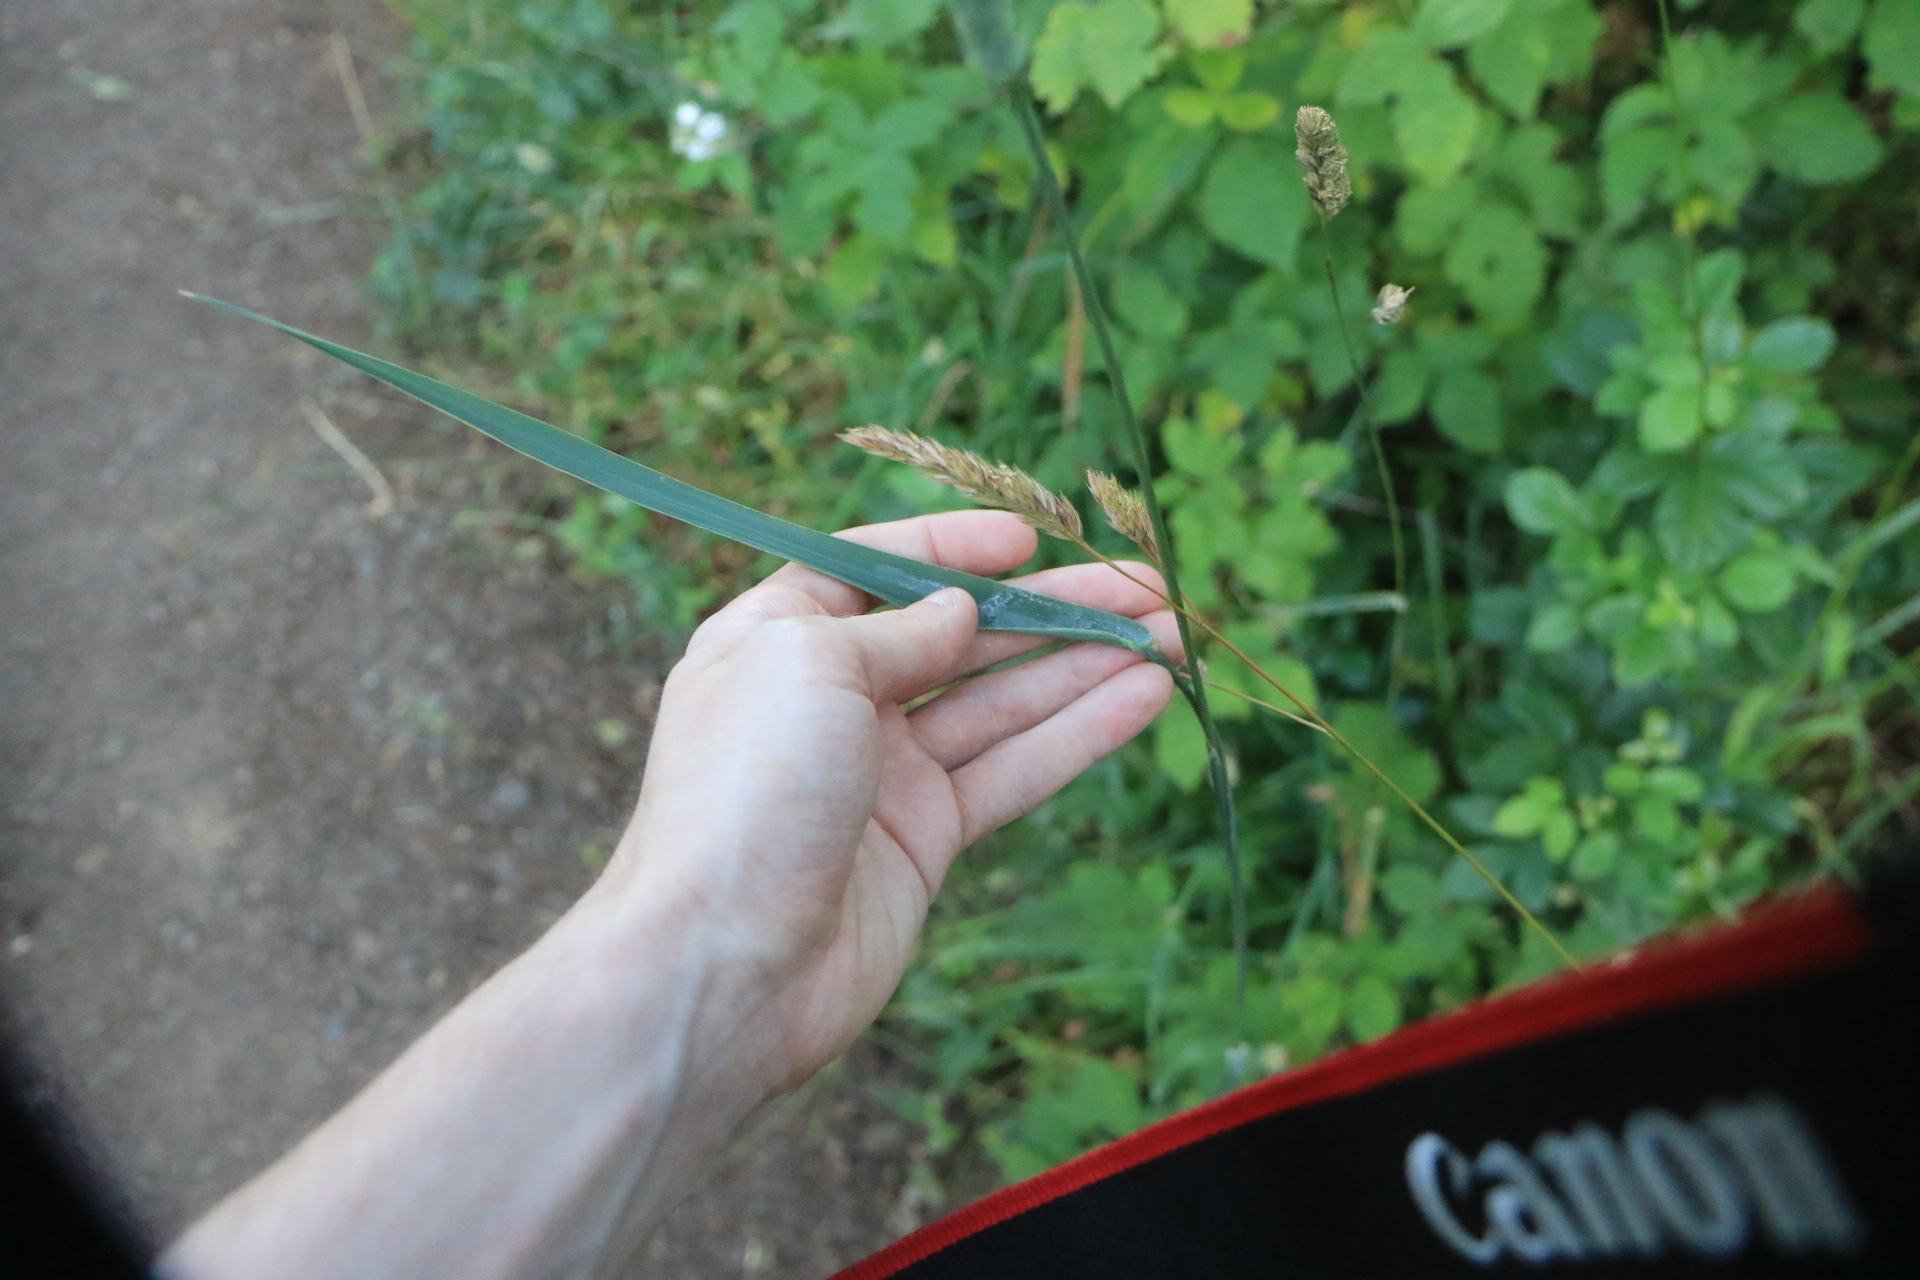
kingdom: Plantae
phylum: Tracheophyta
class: Liliopsida
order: Poales
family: Poaceae
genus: Phleum
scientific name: Phleum pratense
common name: Timothy grass
